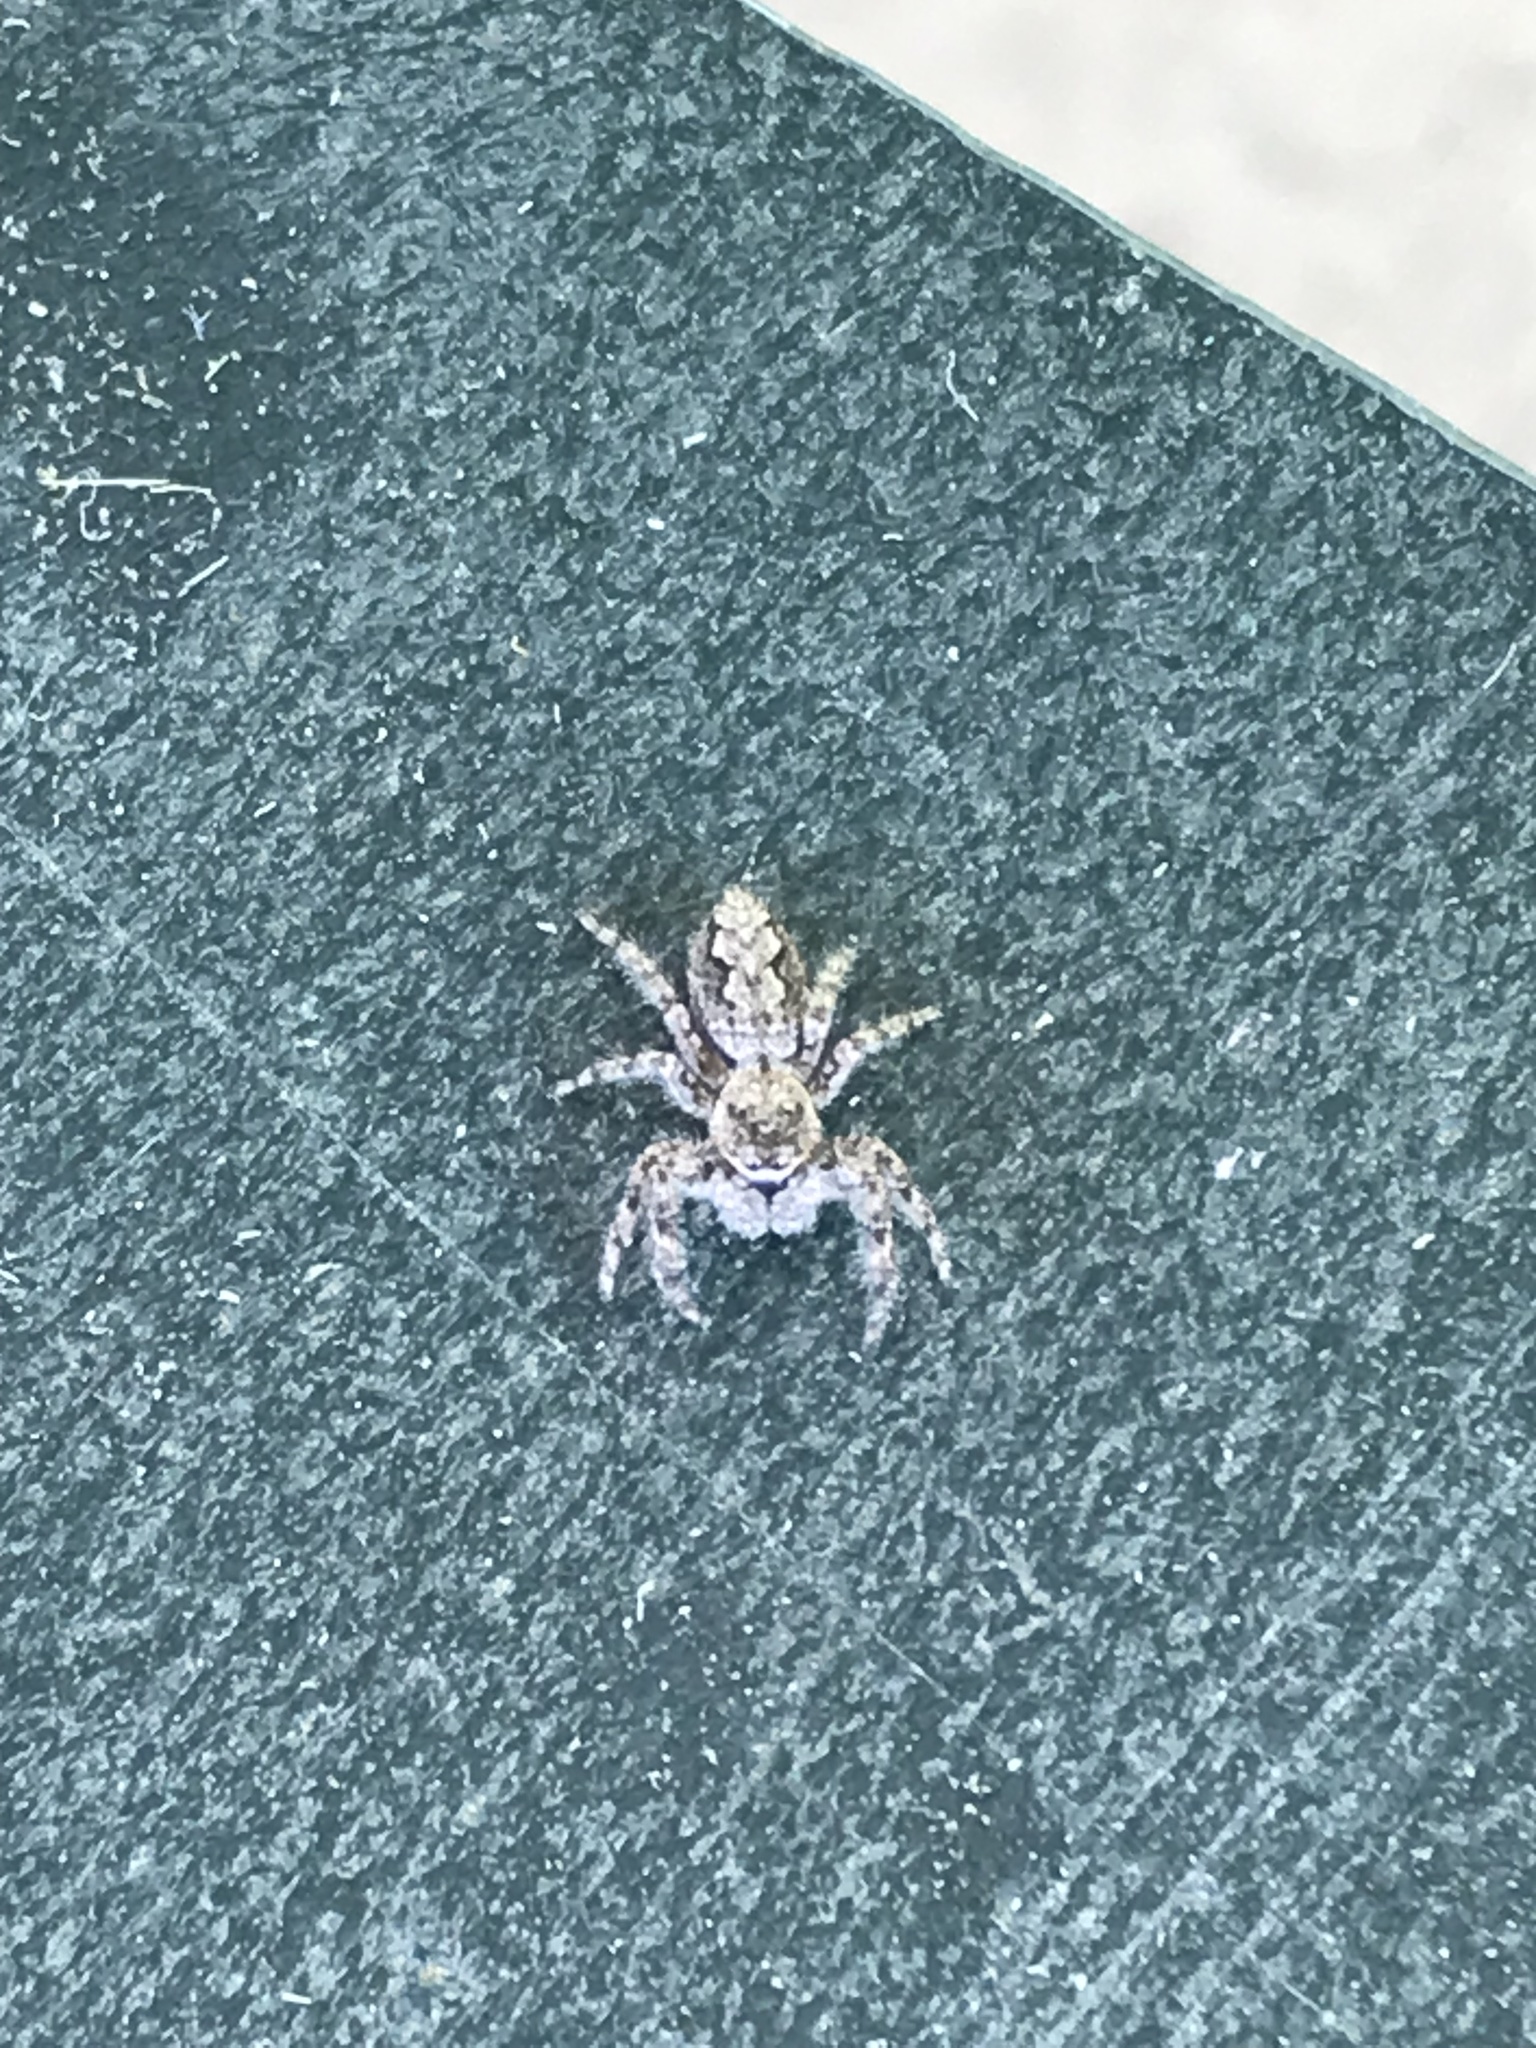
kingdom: Animalia
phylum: Arthropoda
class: Arachnida
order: Araneae
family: Salticidae
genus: Platycryptus
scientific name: Platycryptus undatus
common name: Tan jumping spider
